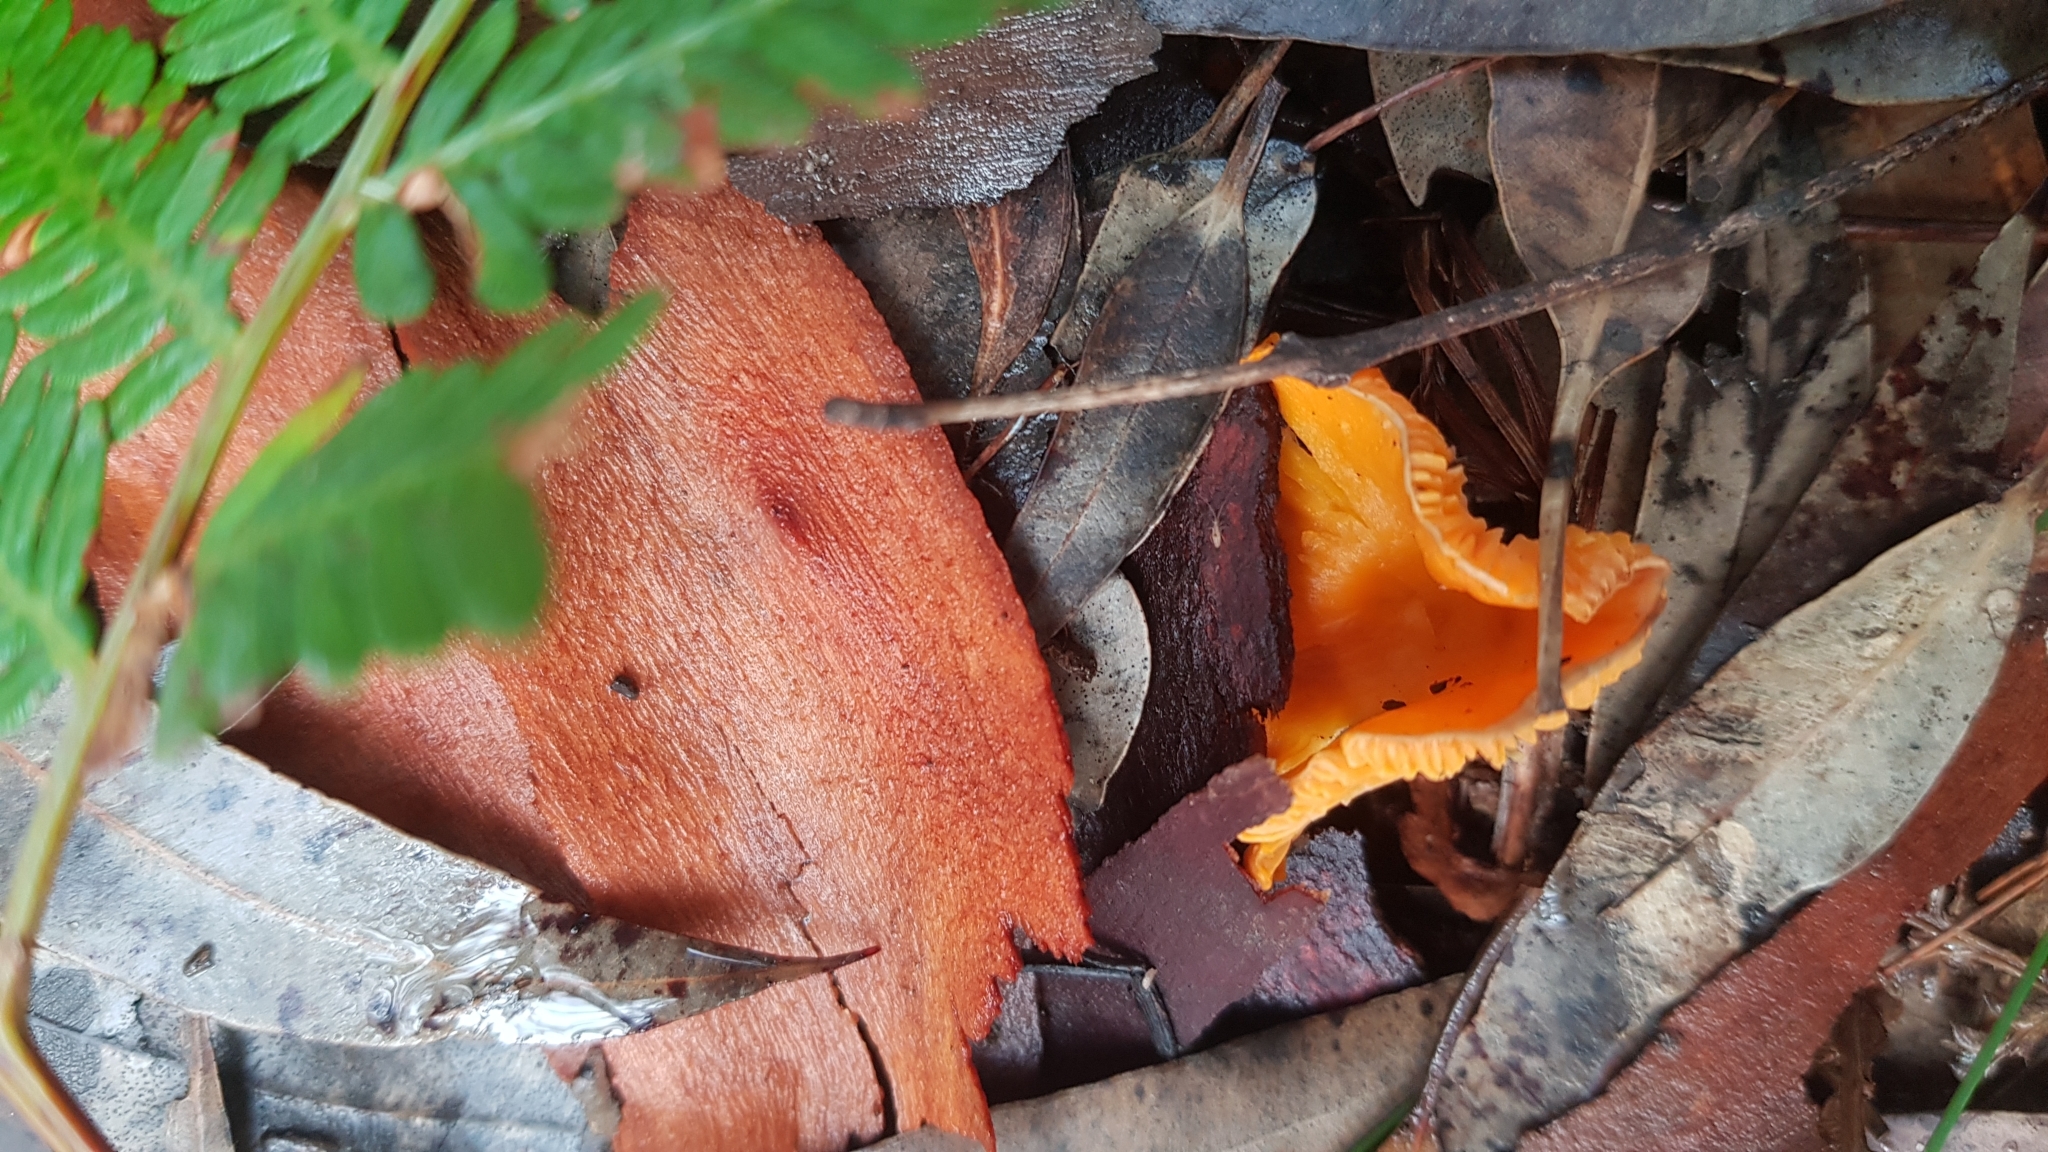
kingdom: Fungi
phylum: Basidiomycota
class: Agaricomycetes
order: Cantharellales
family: Hydnaceae
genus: Cantharellus
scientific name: Cantharellus
